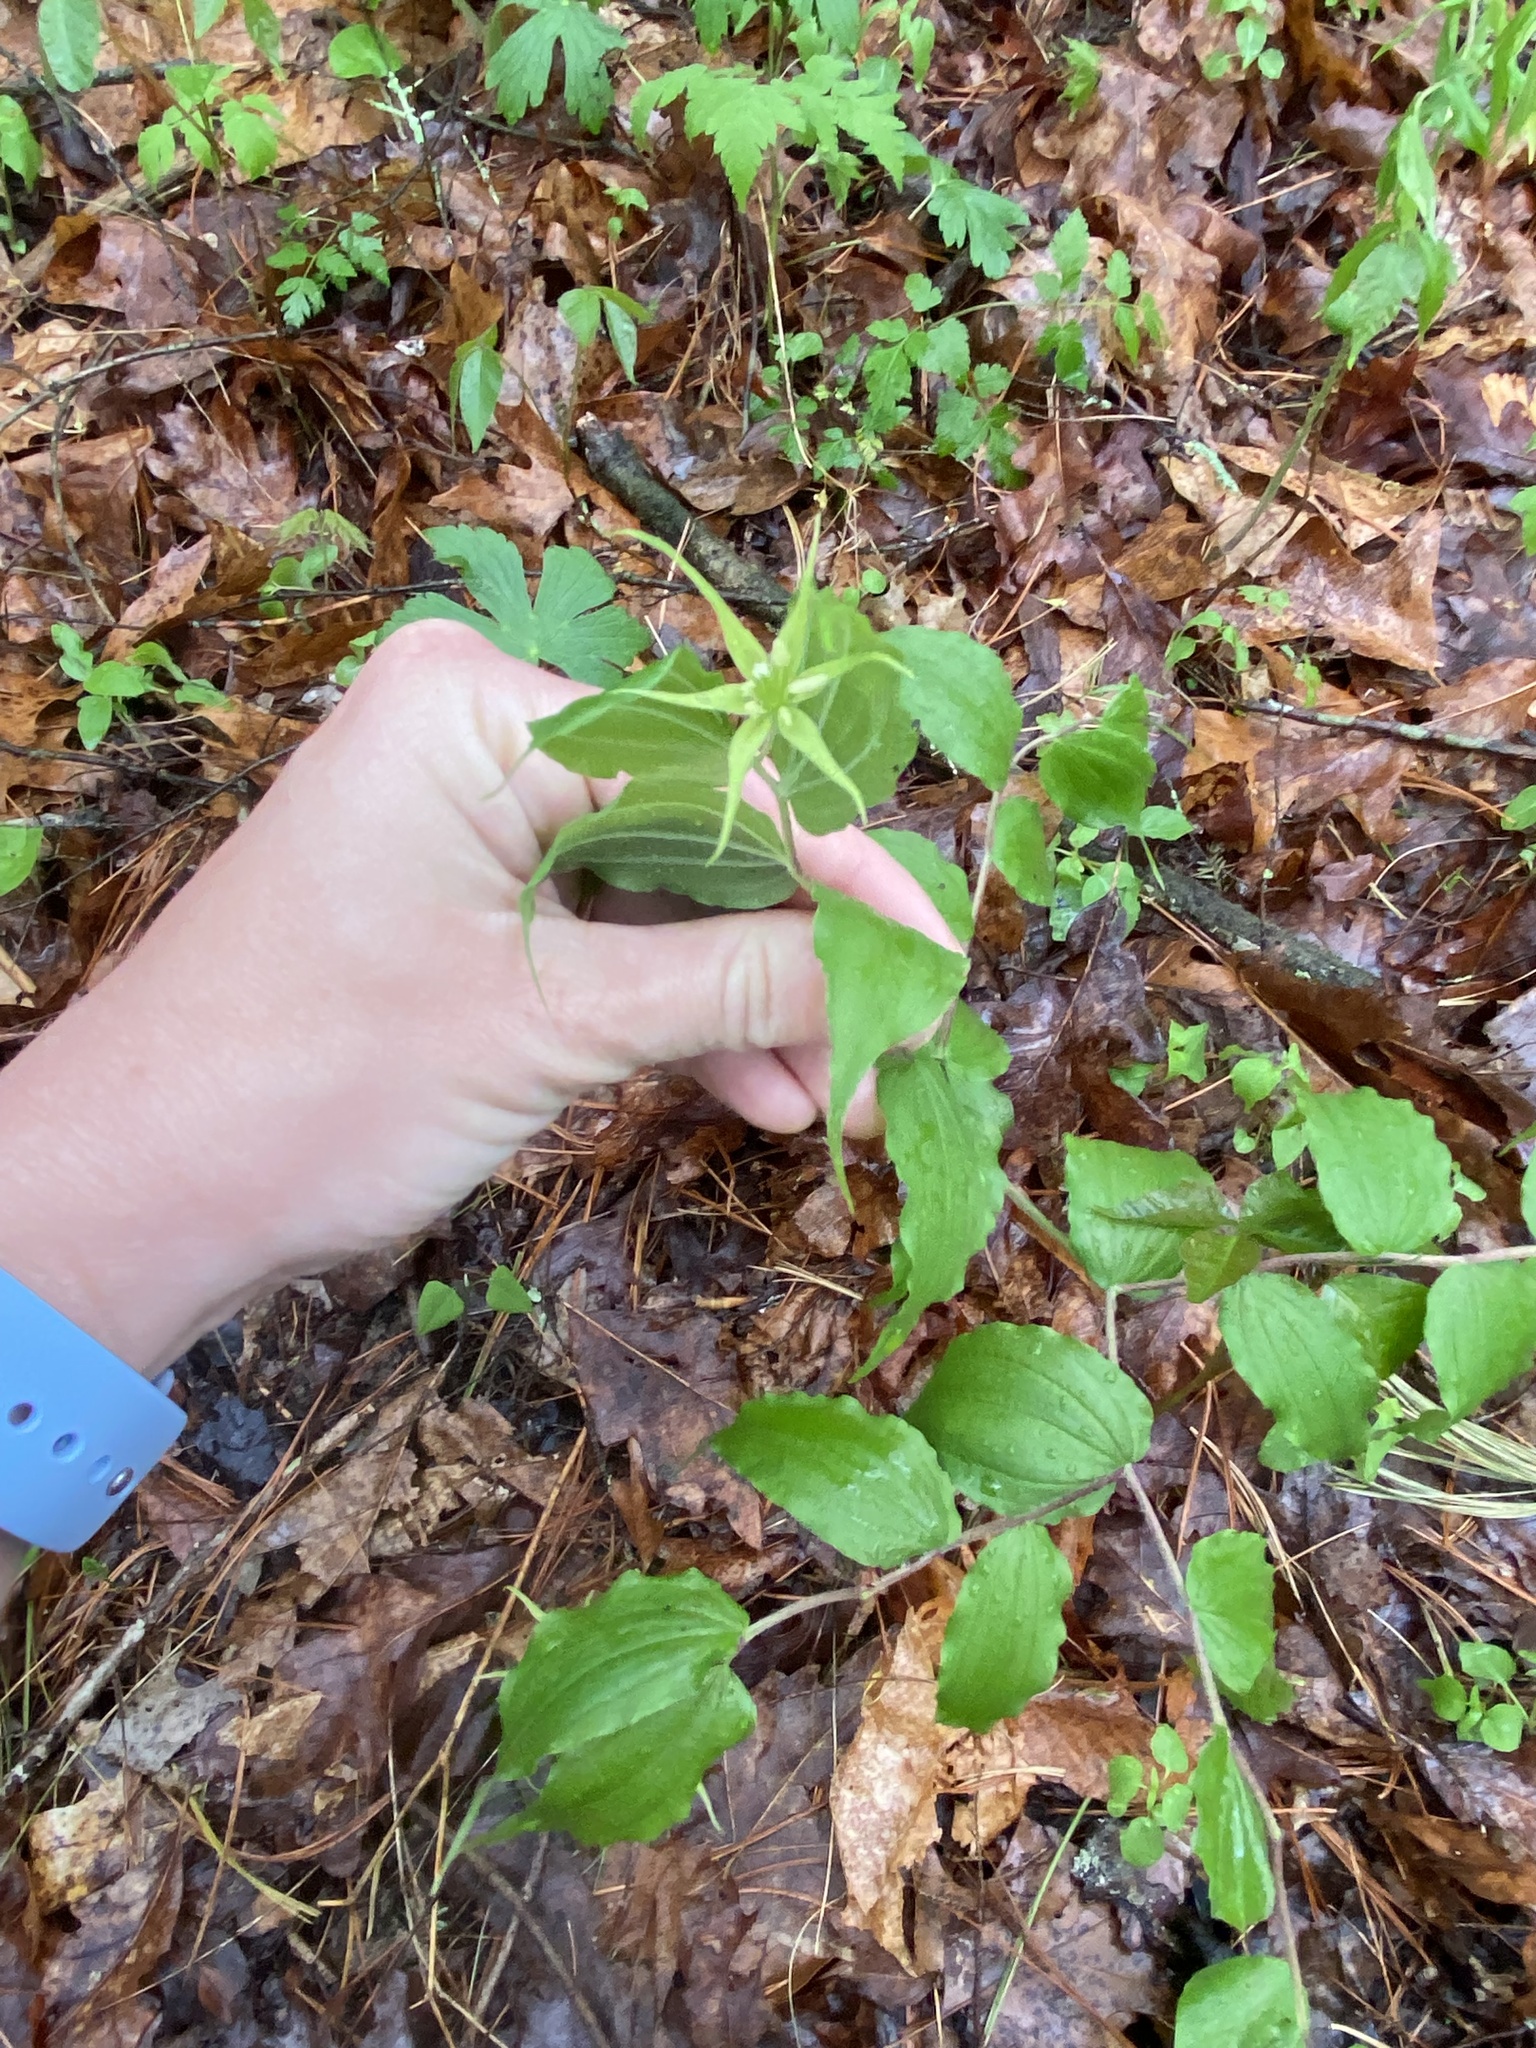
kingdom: Plantae
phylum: Tracheophyta
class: Liliopsida
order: Liliales
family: Liliaceae
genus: Prosartes
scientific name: Prosartes lanuginosa
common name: Hairy mandarin
